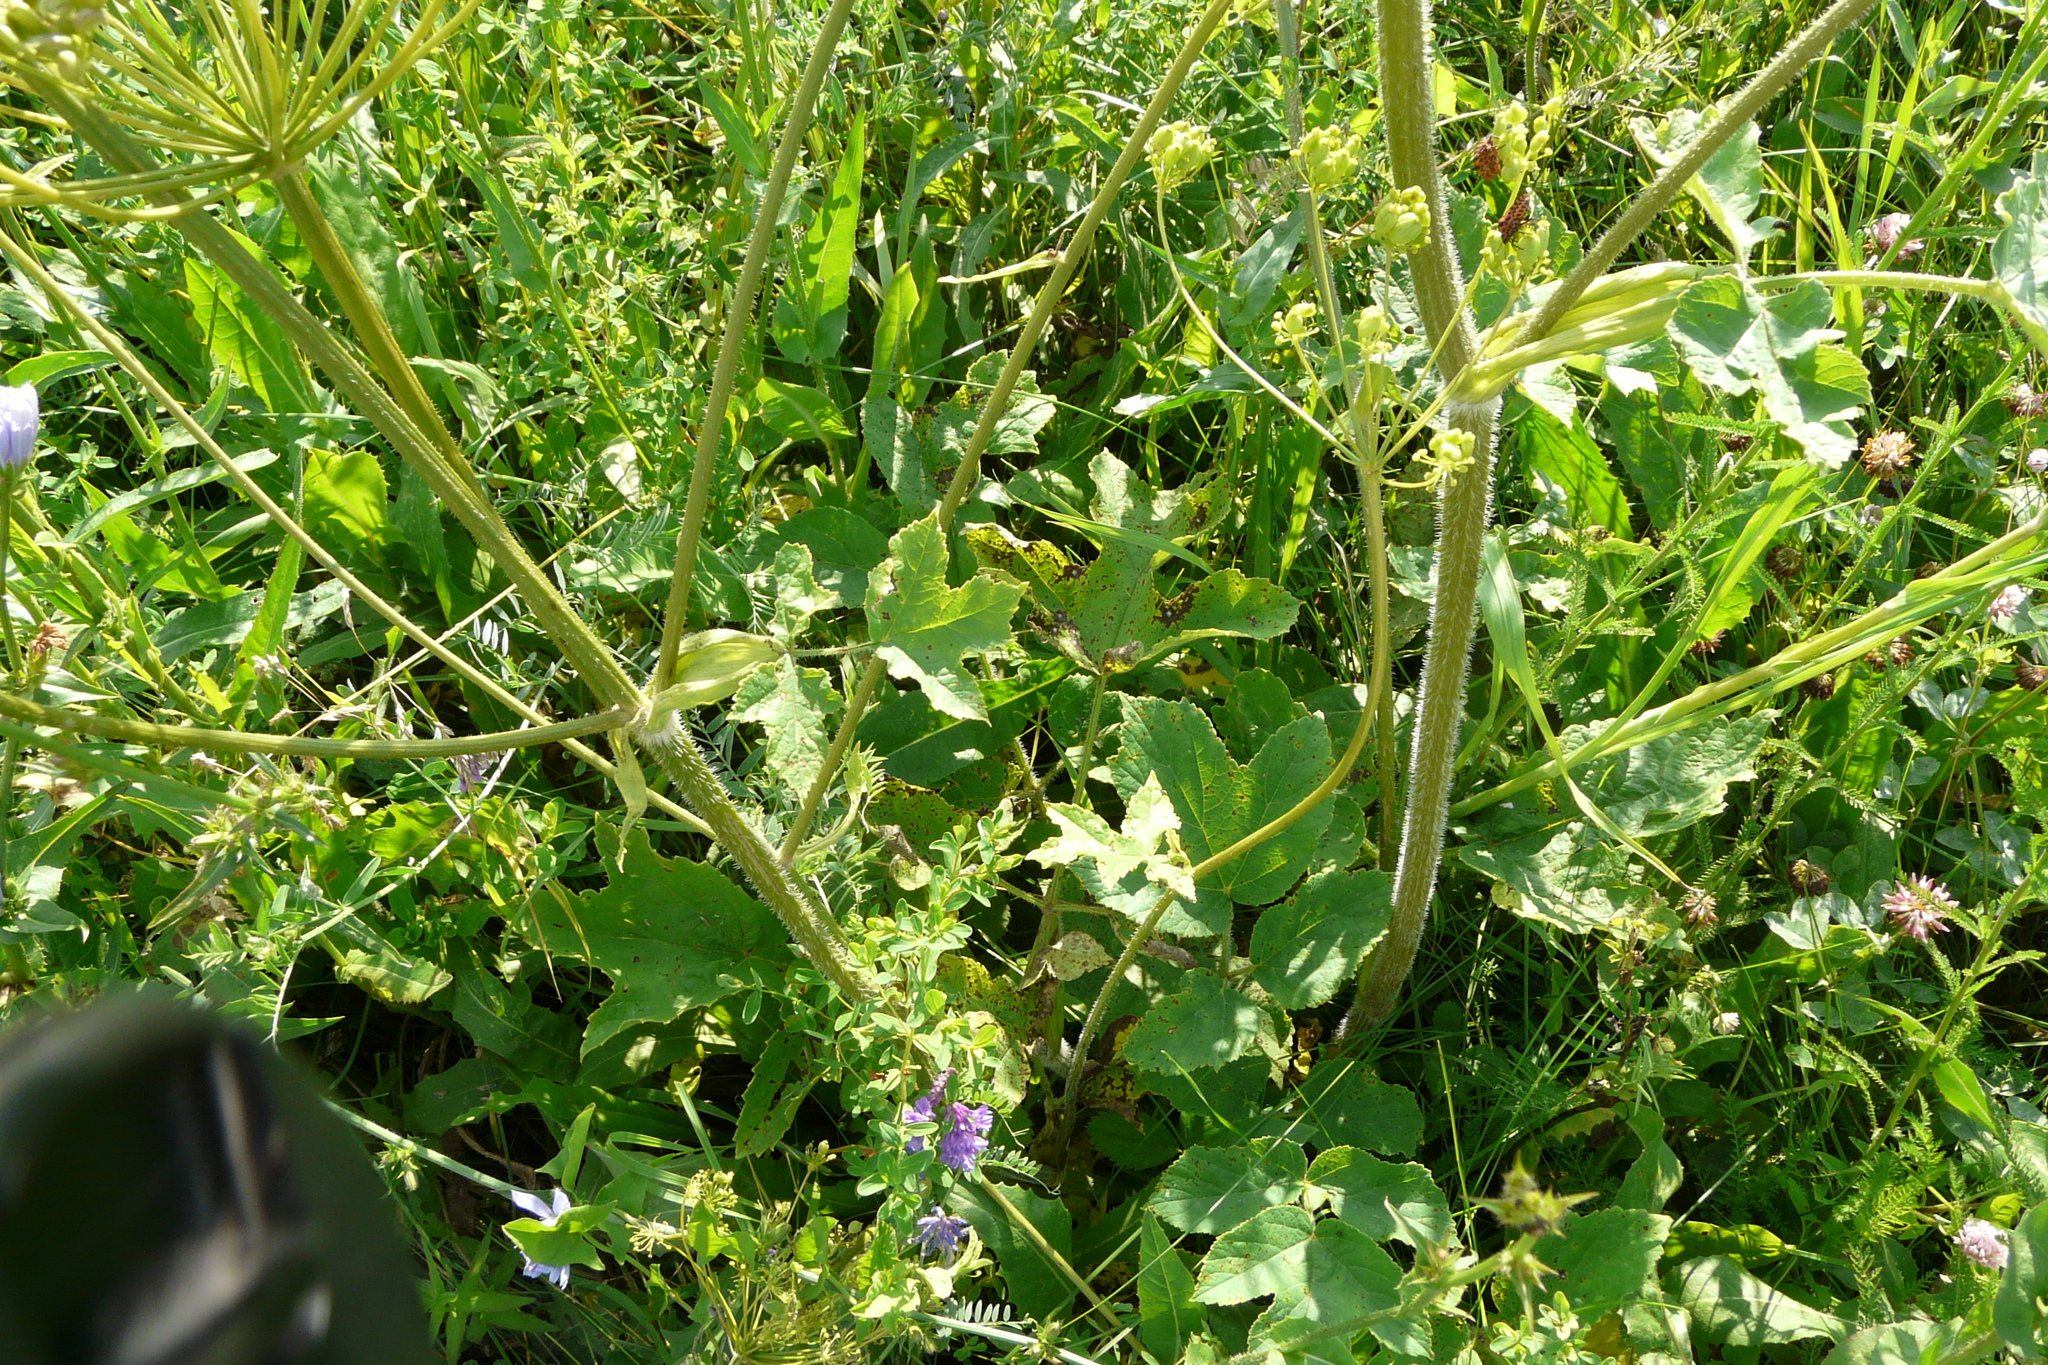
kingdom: Plantae
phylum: Tracheophyta
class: Magnoliopsida
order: Apiales
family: Apiaceae
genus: Heracleum
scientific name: Heracleum sphondylium
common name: Hogweed
